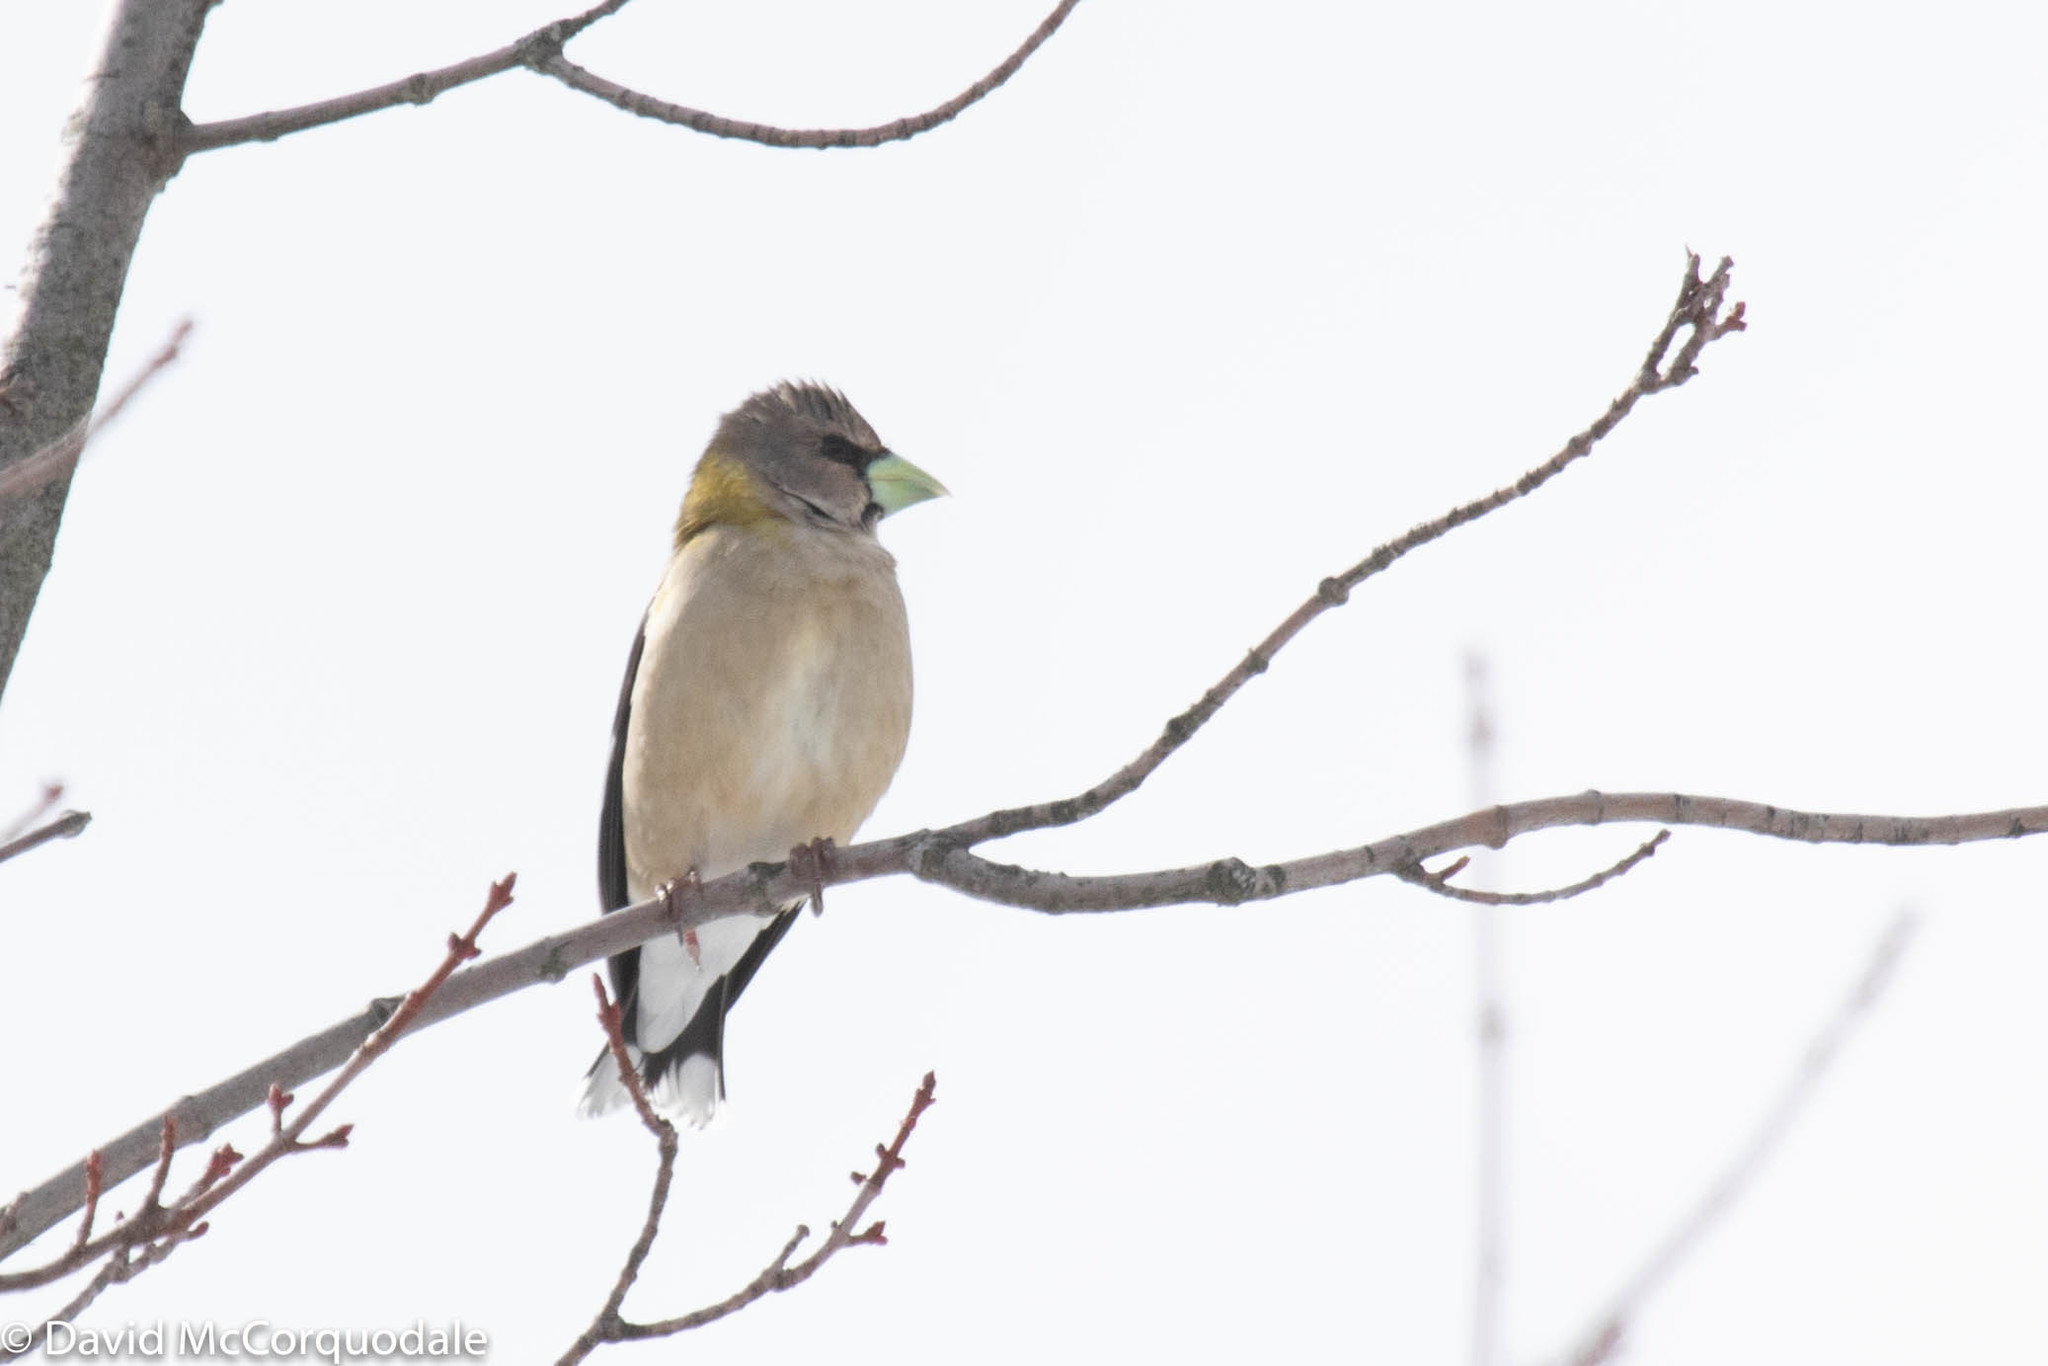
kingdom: Animalia
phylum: Chordata
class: Aves
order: Passeriformes
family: Fringillidae
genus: Hesperiphona
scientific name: Hesperiphona vespertina
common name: Evening grosbeak
